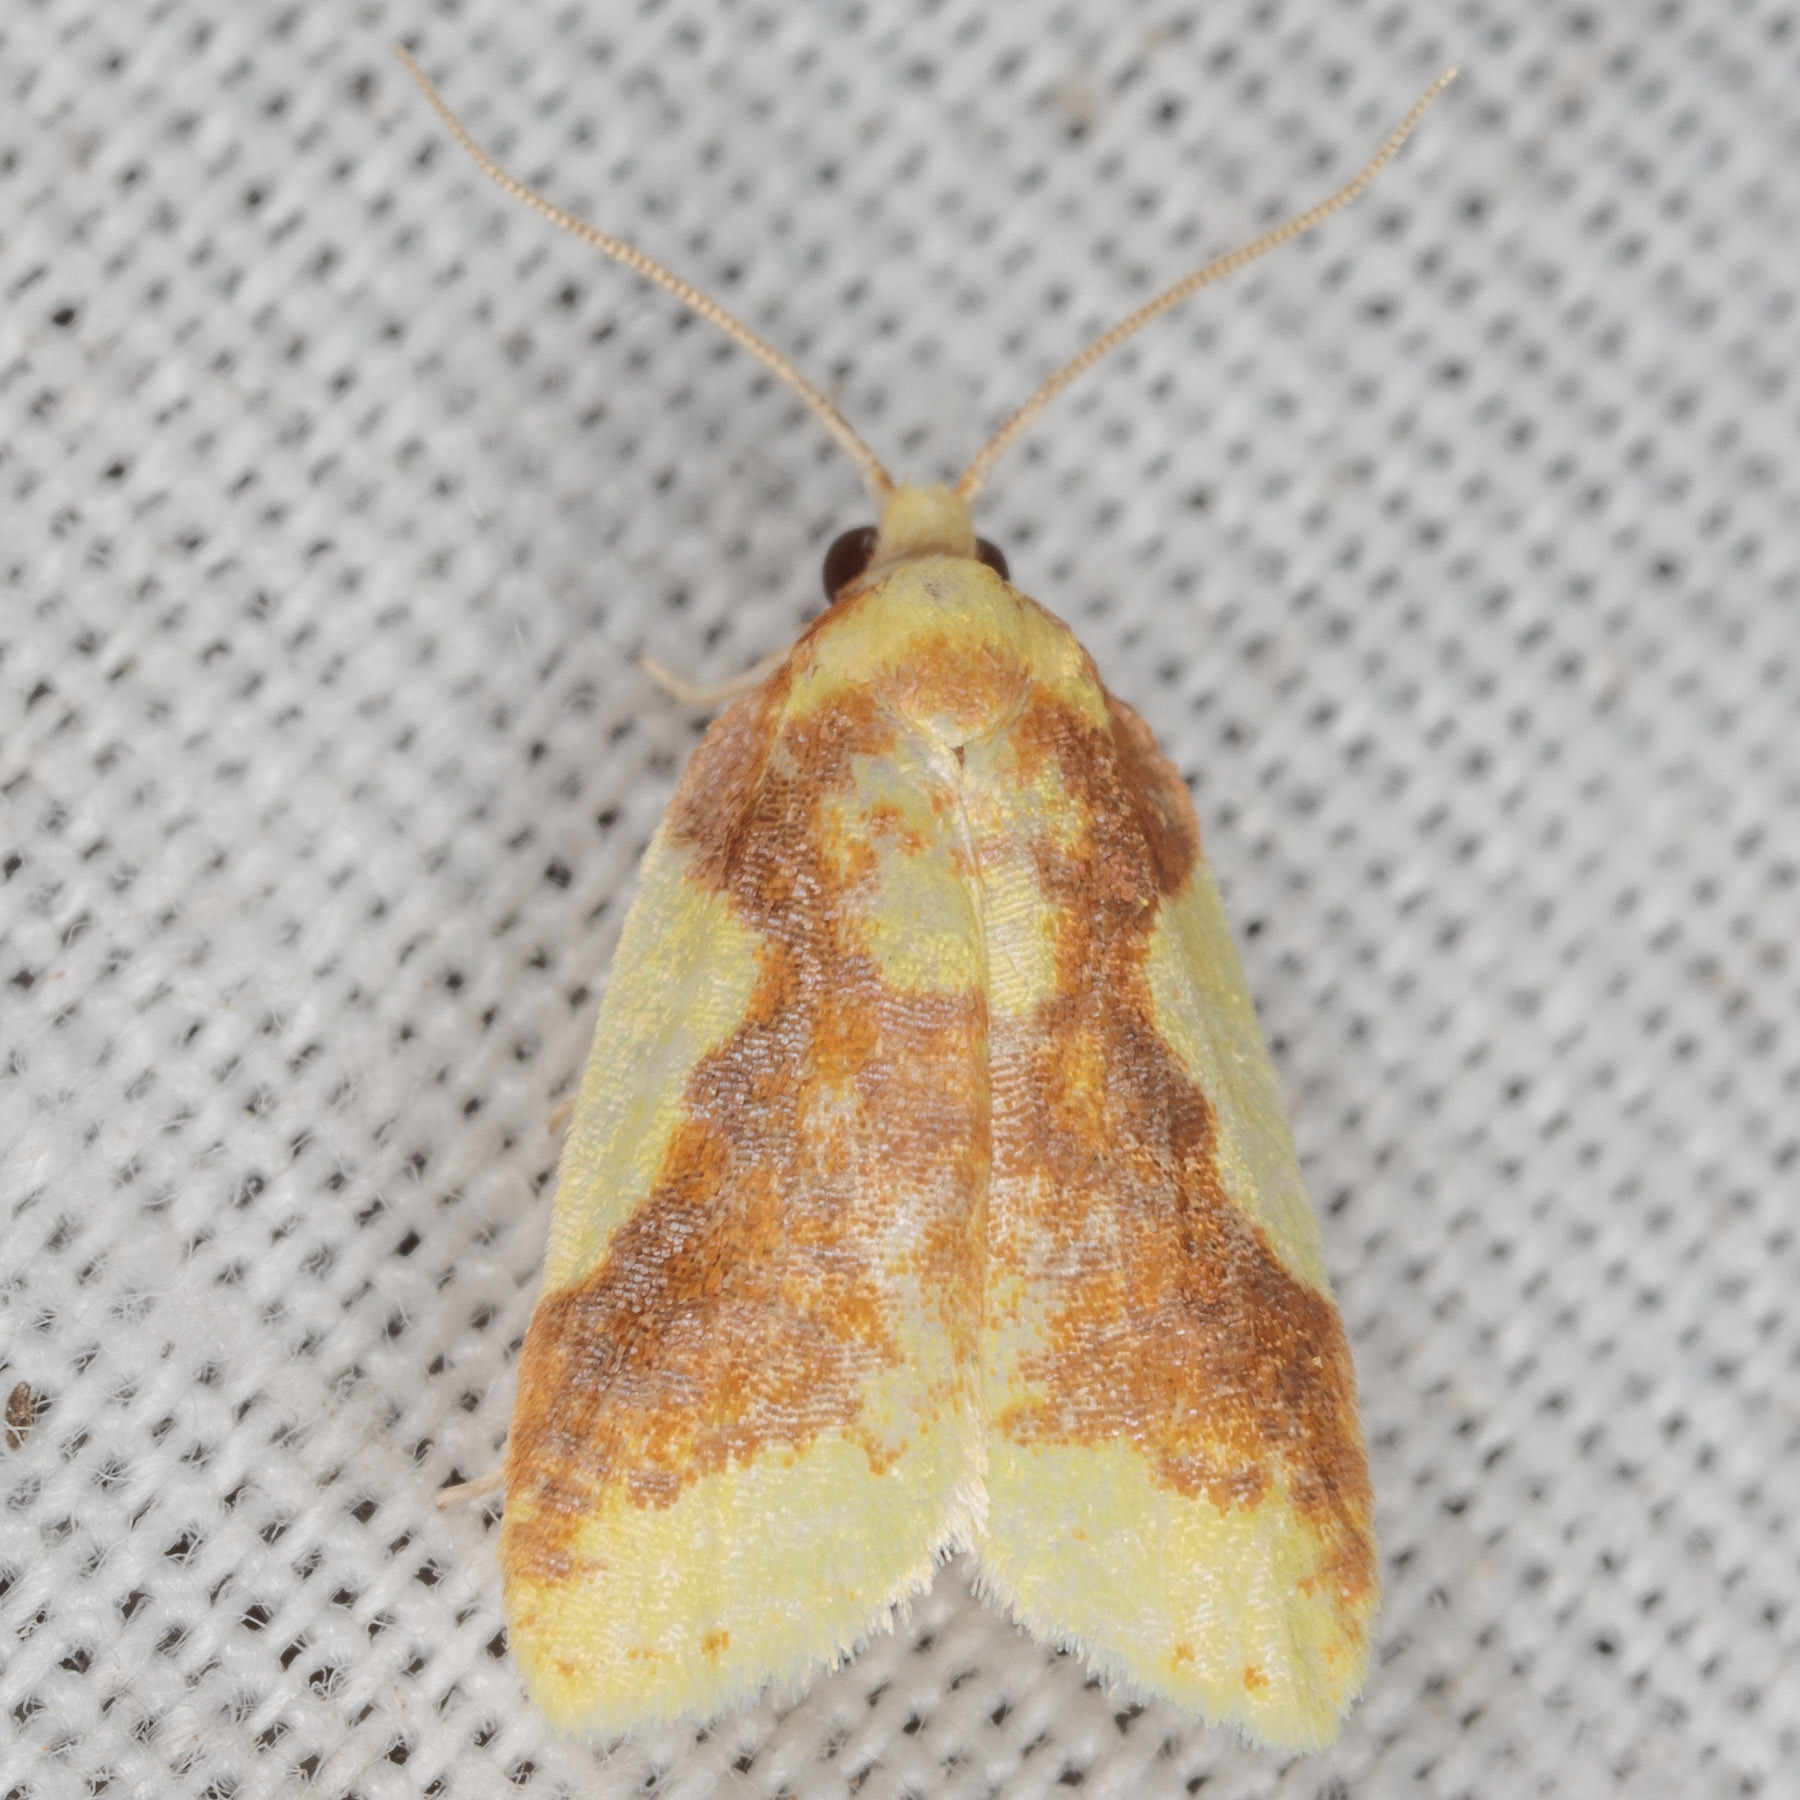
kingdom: Animalia
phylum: Arthropoda
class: Insecta
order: Lepidoptera
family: Tortricidae
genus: Sparganothis
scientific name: Sparganothis pulcherrimana
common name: Beautiful sparganothis
